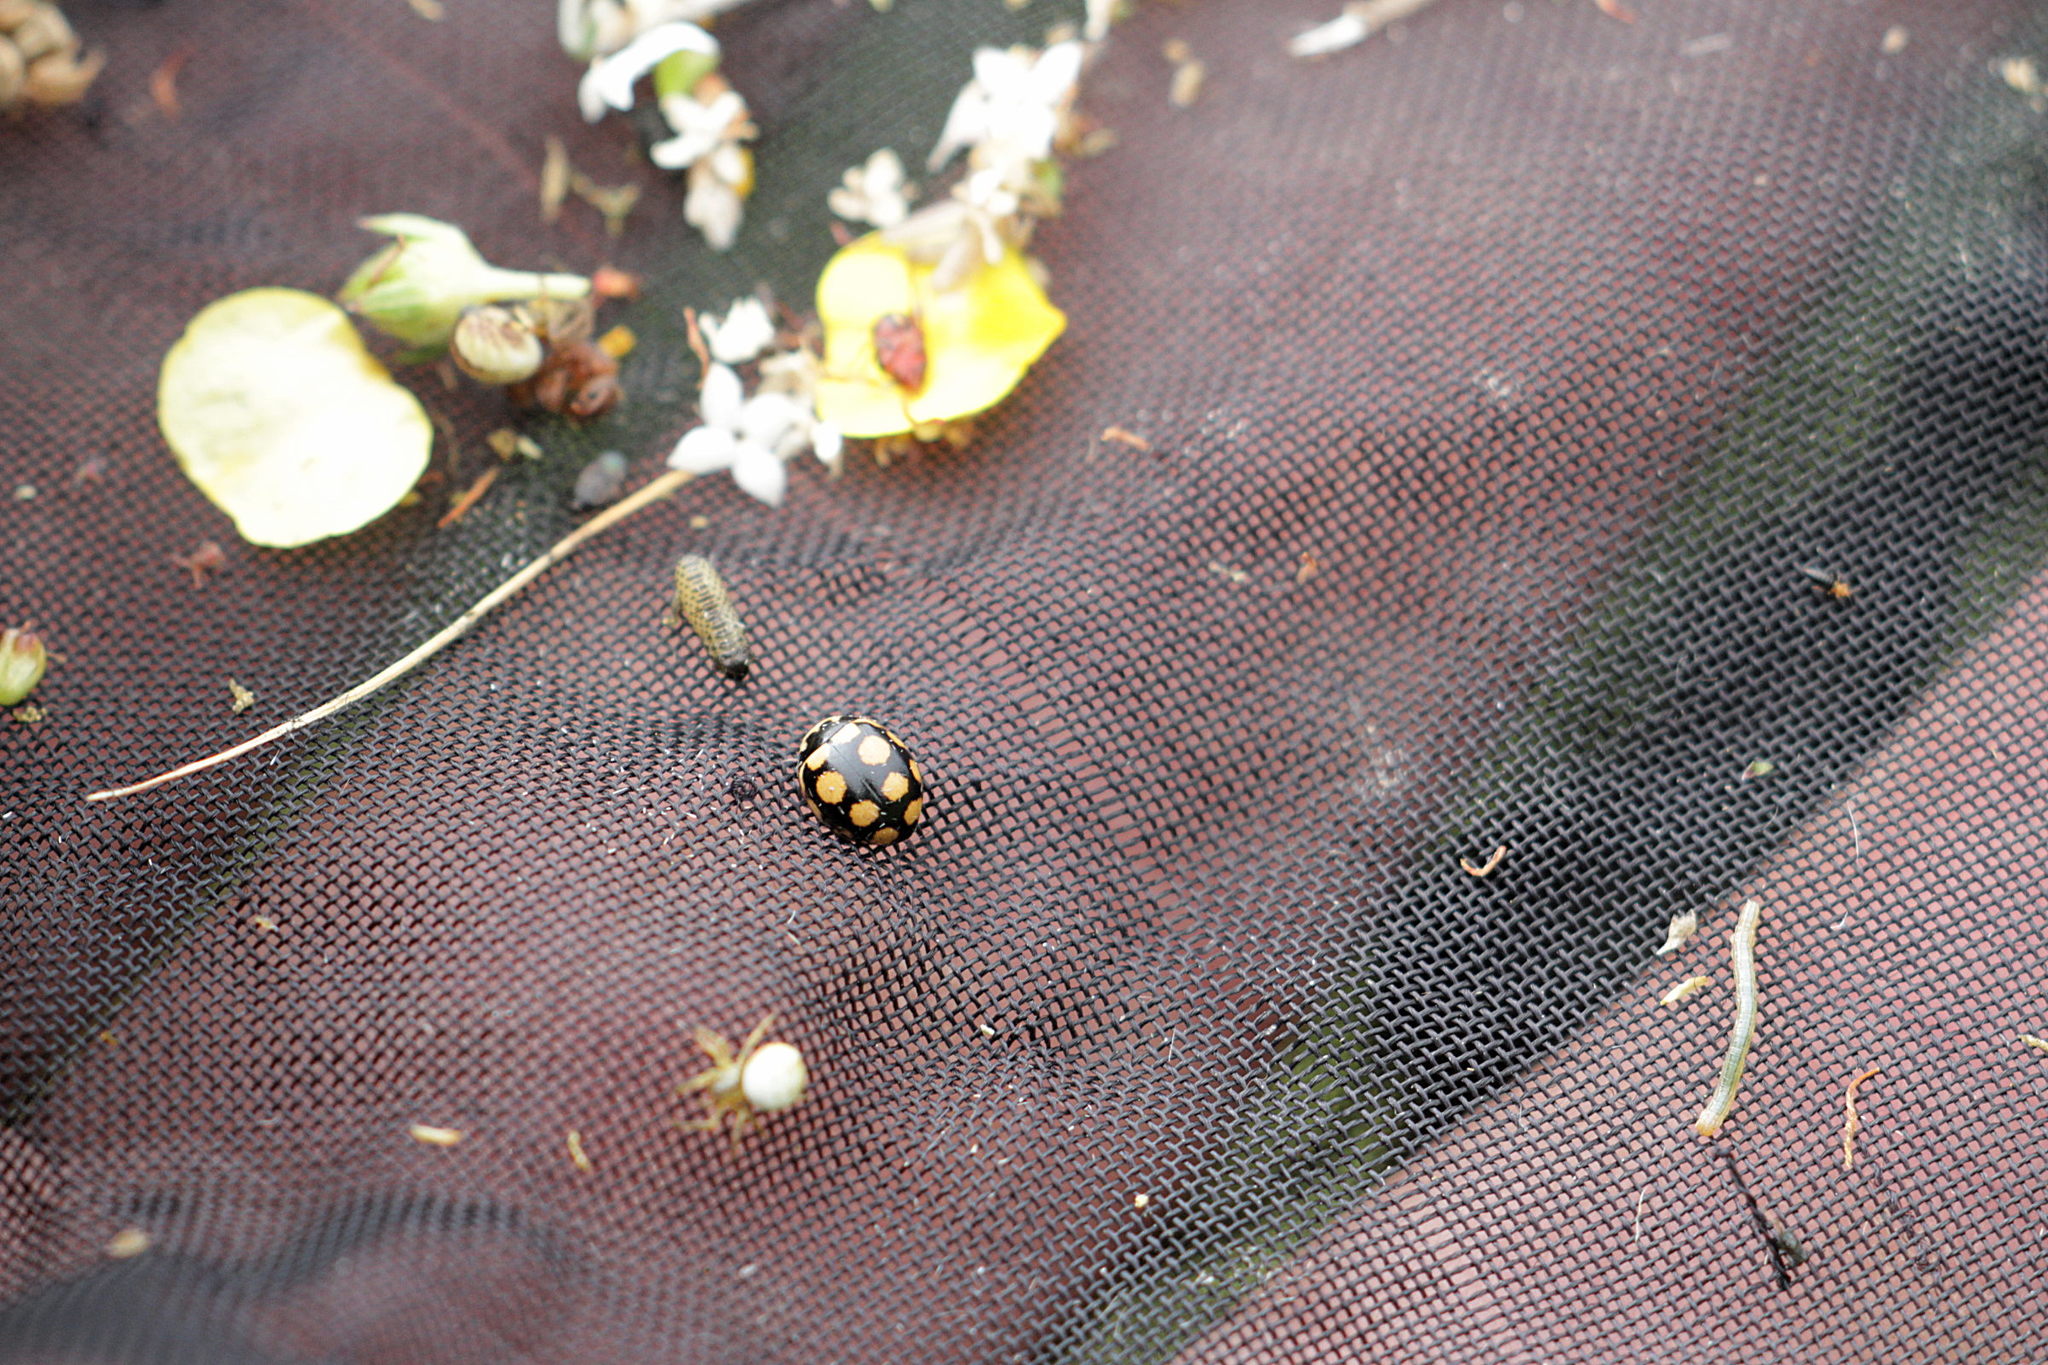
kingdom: Animalia
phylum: Arthropoda
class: Insecta
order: Coleoptera
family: Coccinellidae
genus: Coccinula
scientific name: Coccinula quatuordecimpustulata
